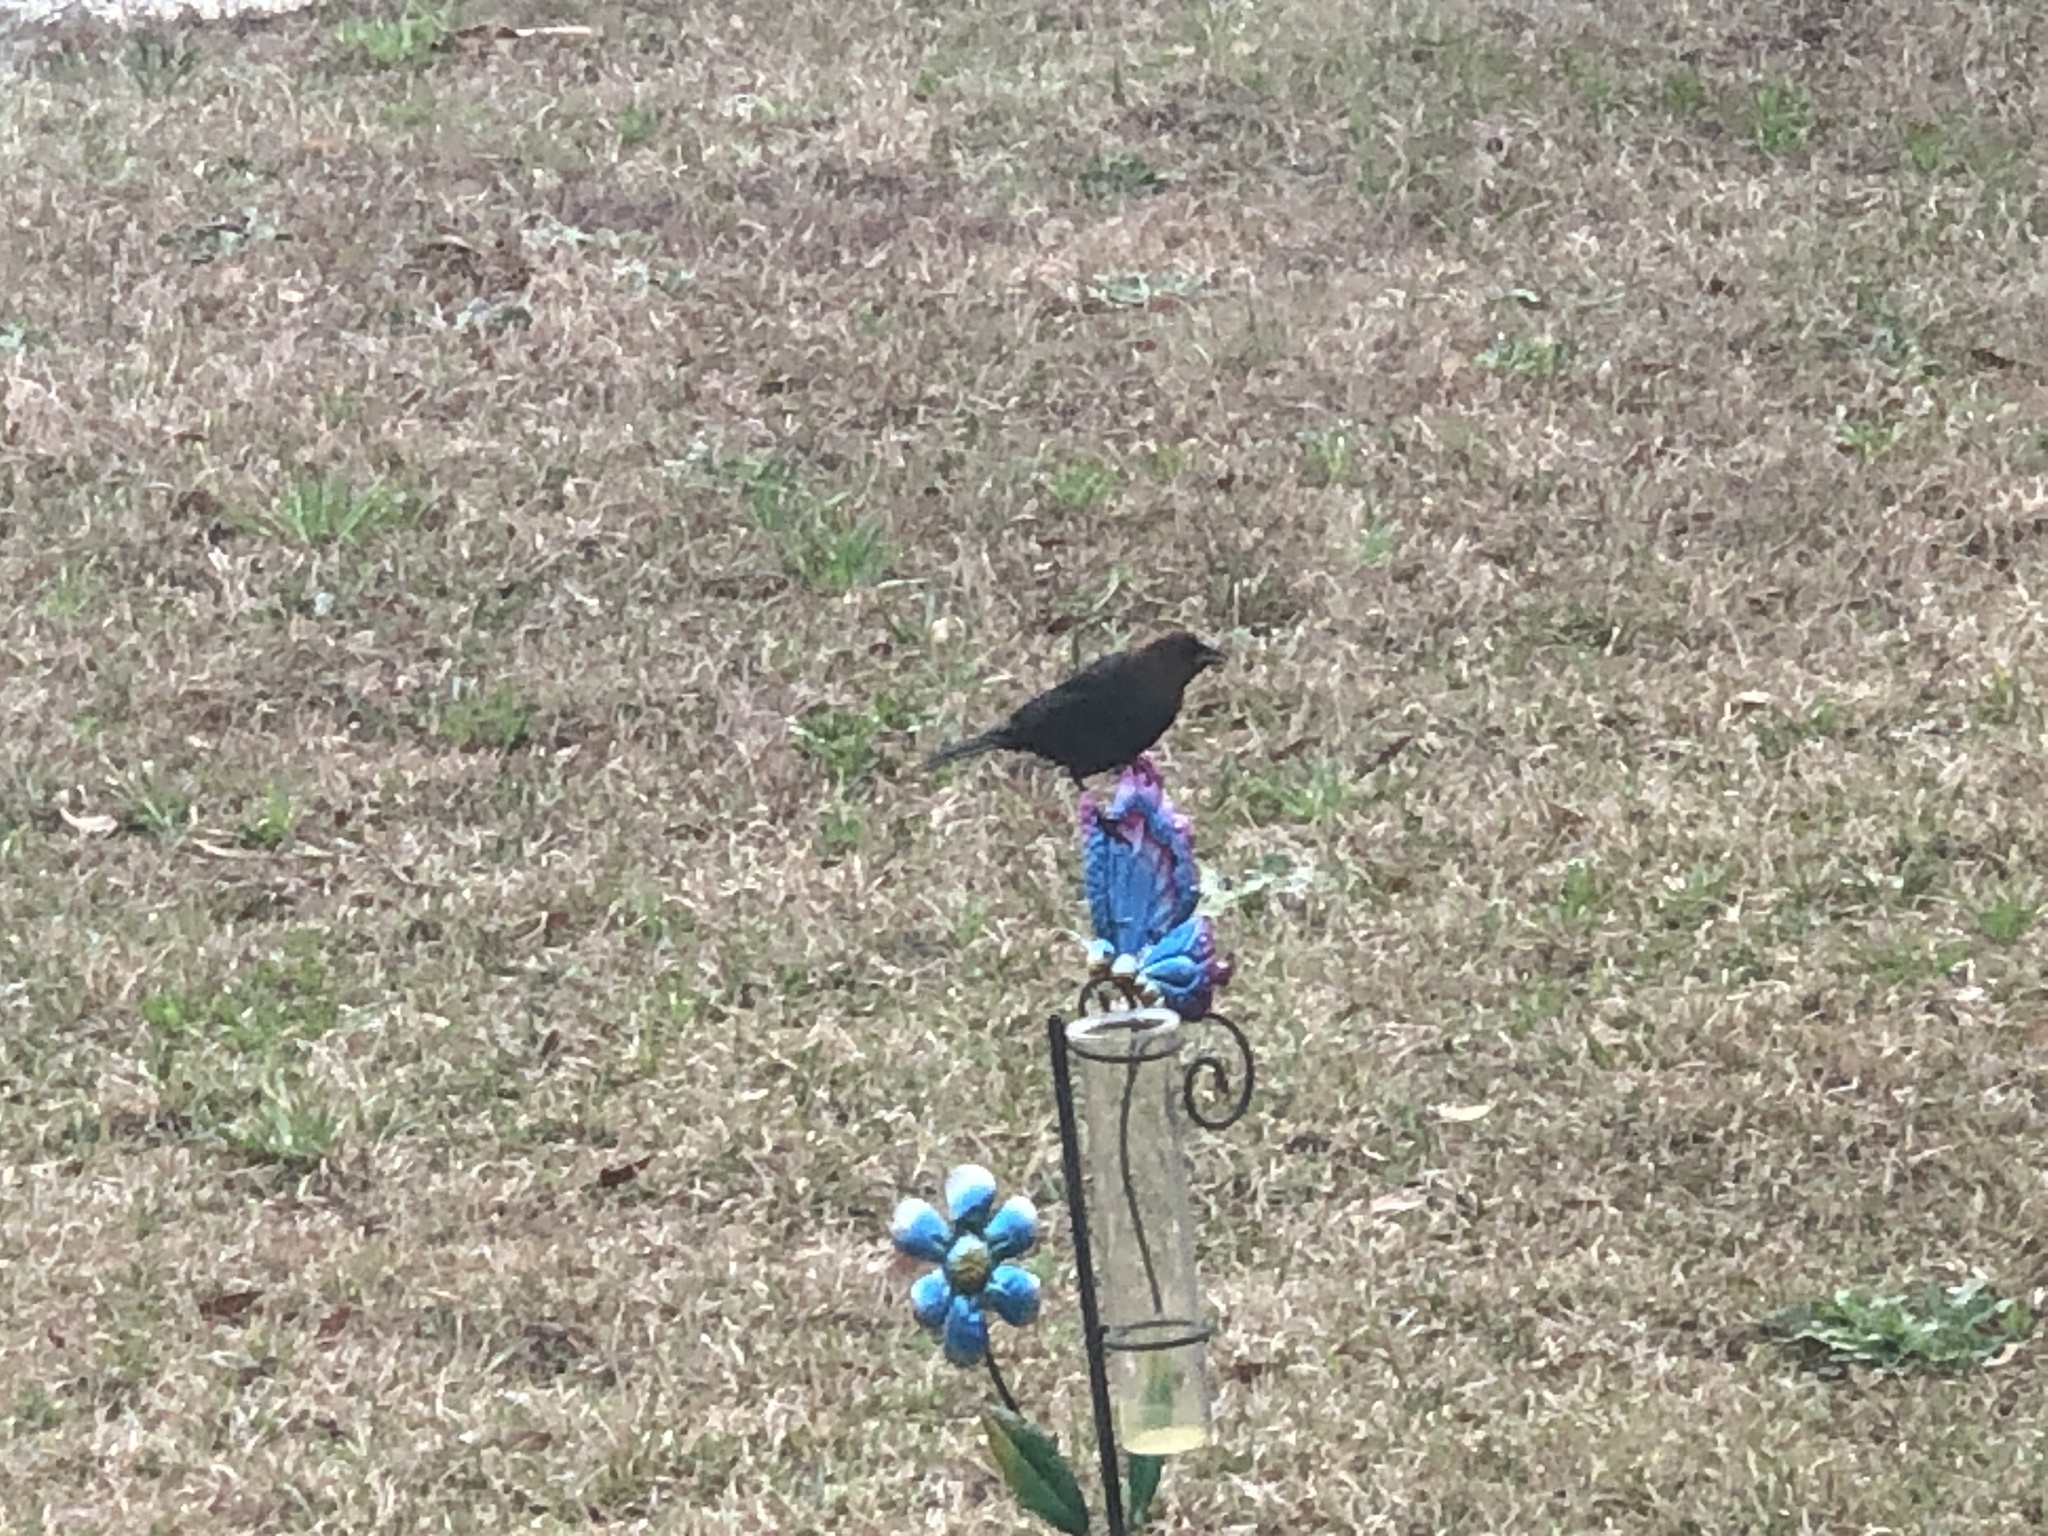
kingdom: Animalia
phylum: Chordata
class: Aves
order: Passeriformes
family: Icteridae
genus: Molothrus
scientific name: Molothrus ater
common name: Brown-headed cowbird
